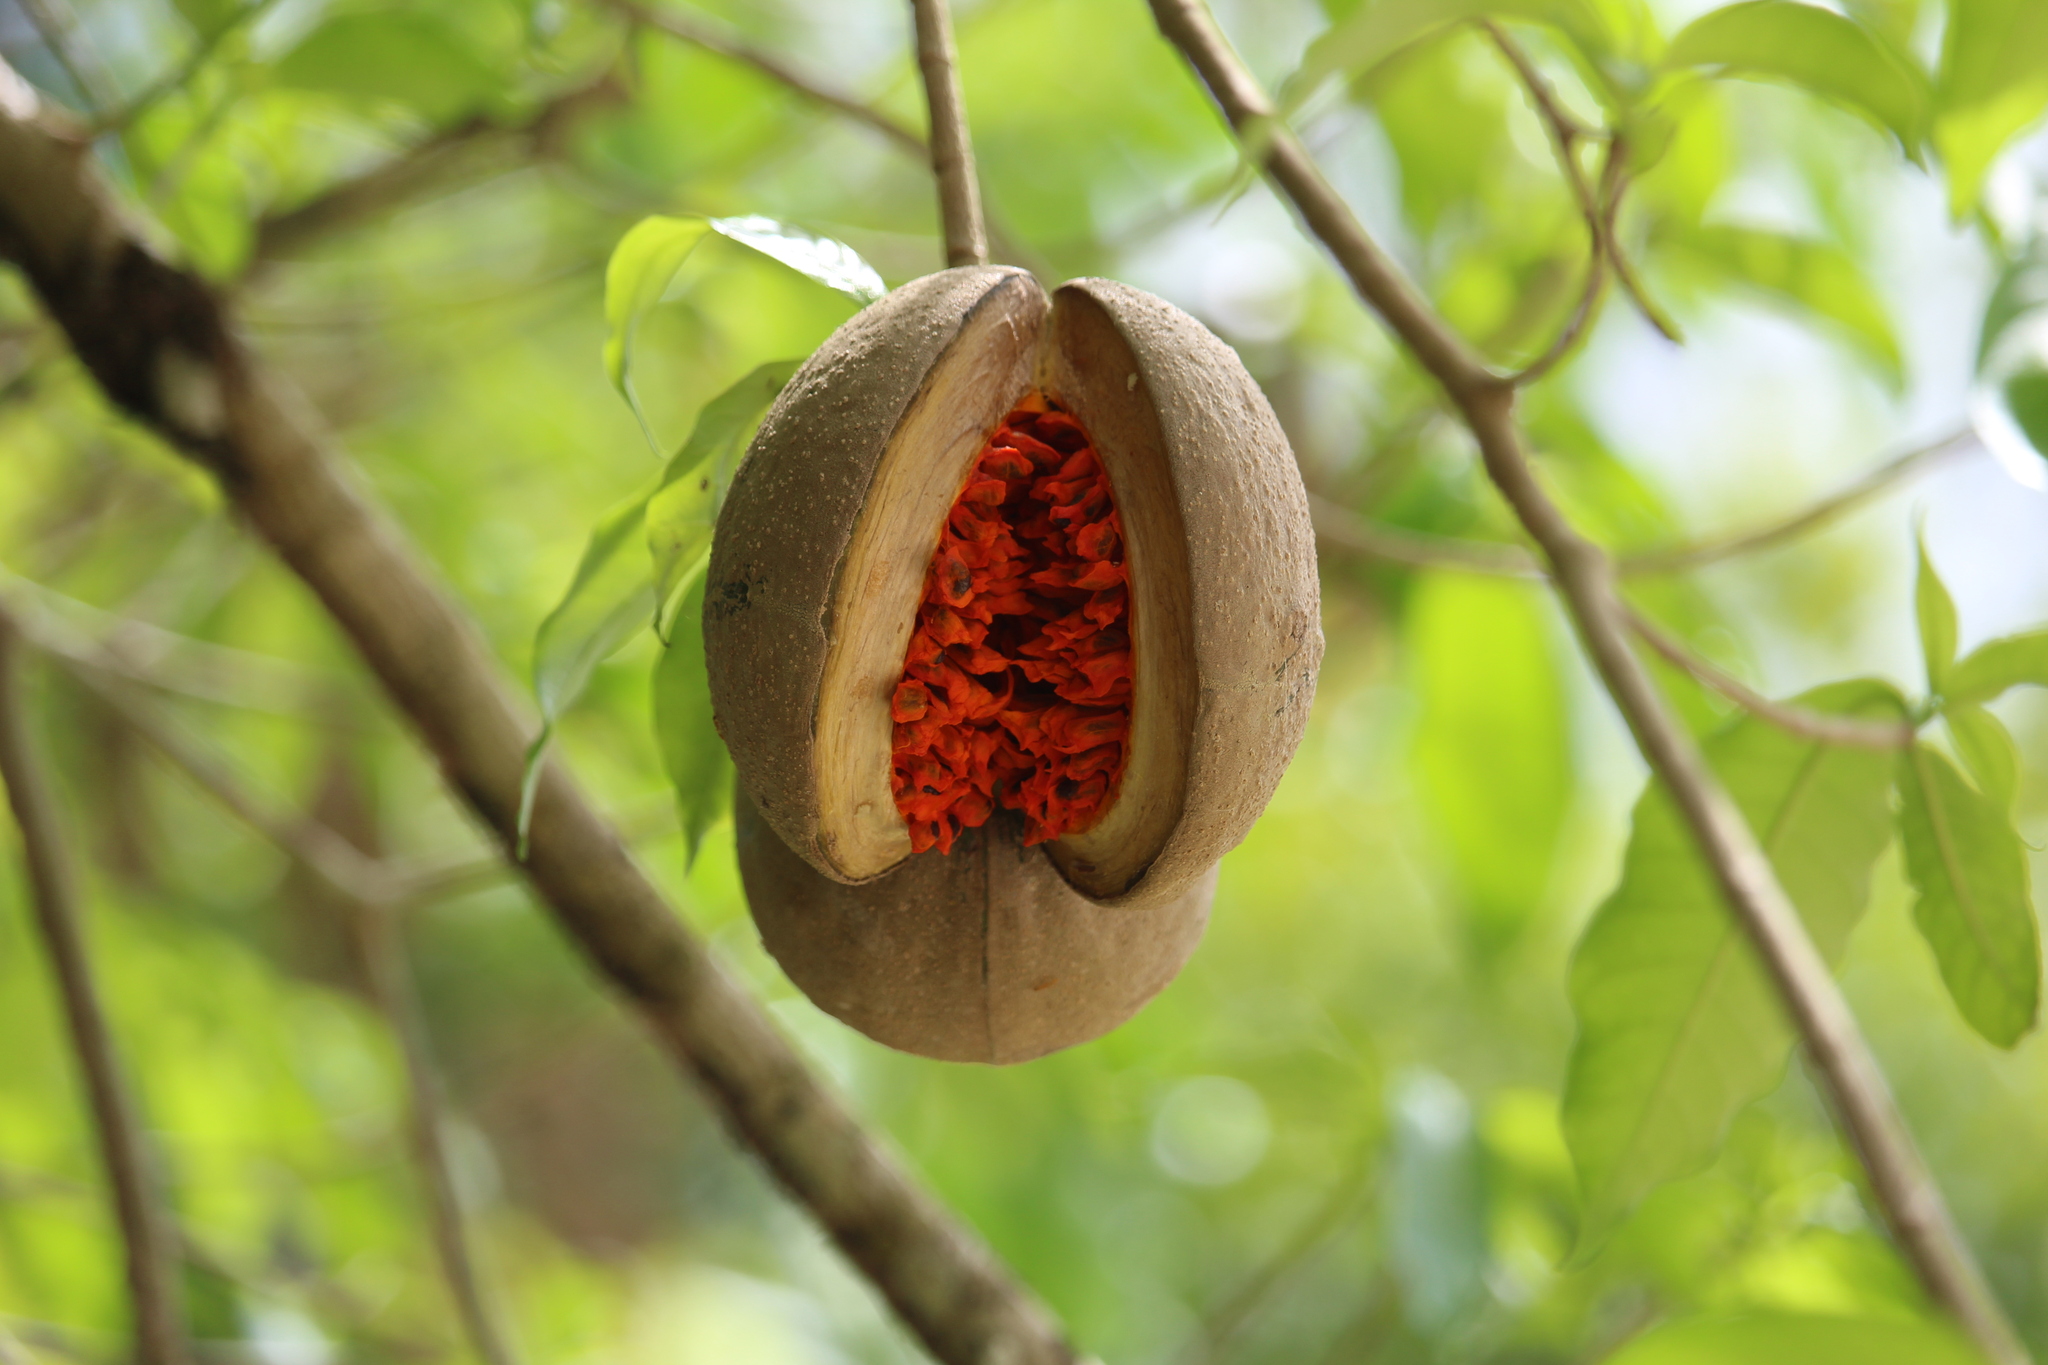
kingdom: Plantae
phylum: Tracheophyta
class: Magnoliopsida
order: Gentianales
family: Apocynaceae
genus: Tabernaemontana
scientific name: Tabernaemontana donnell-smithii
